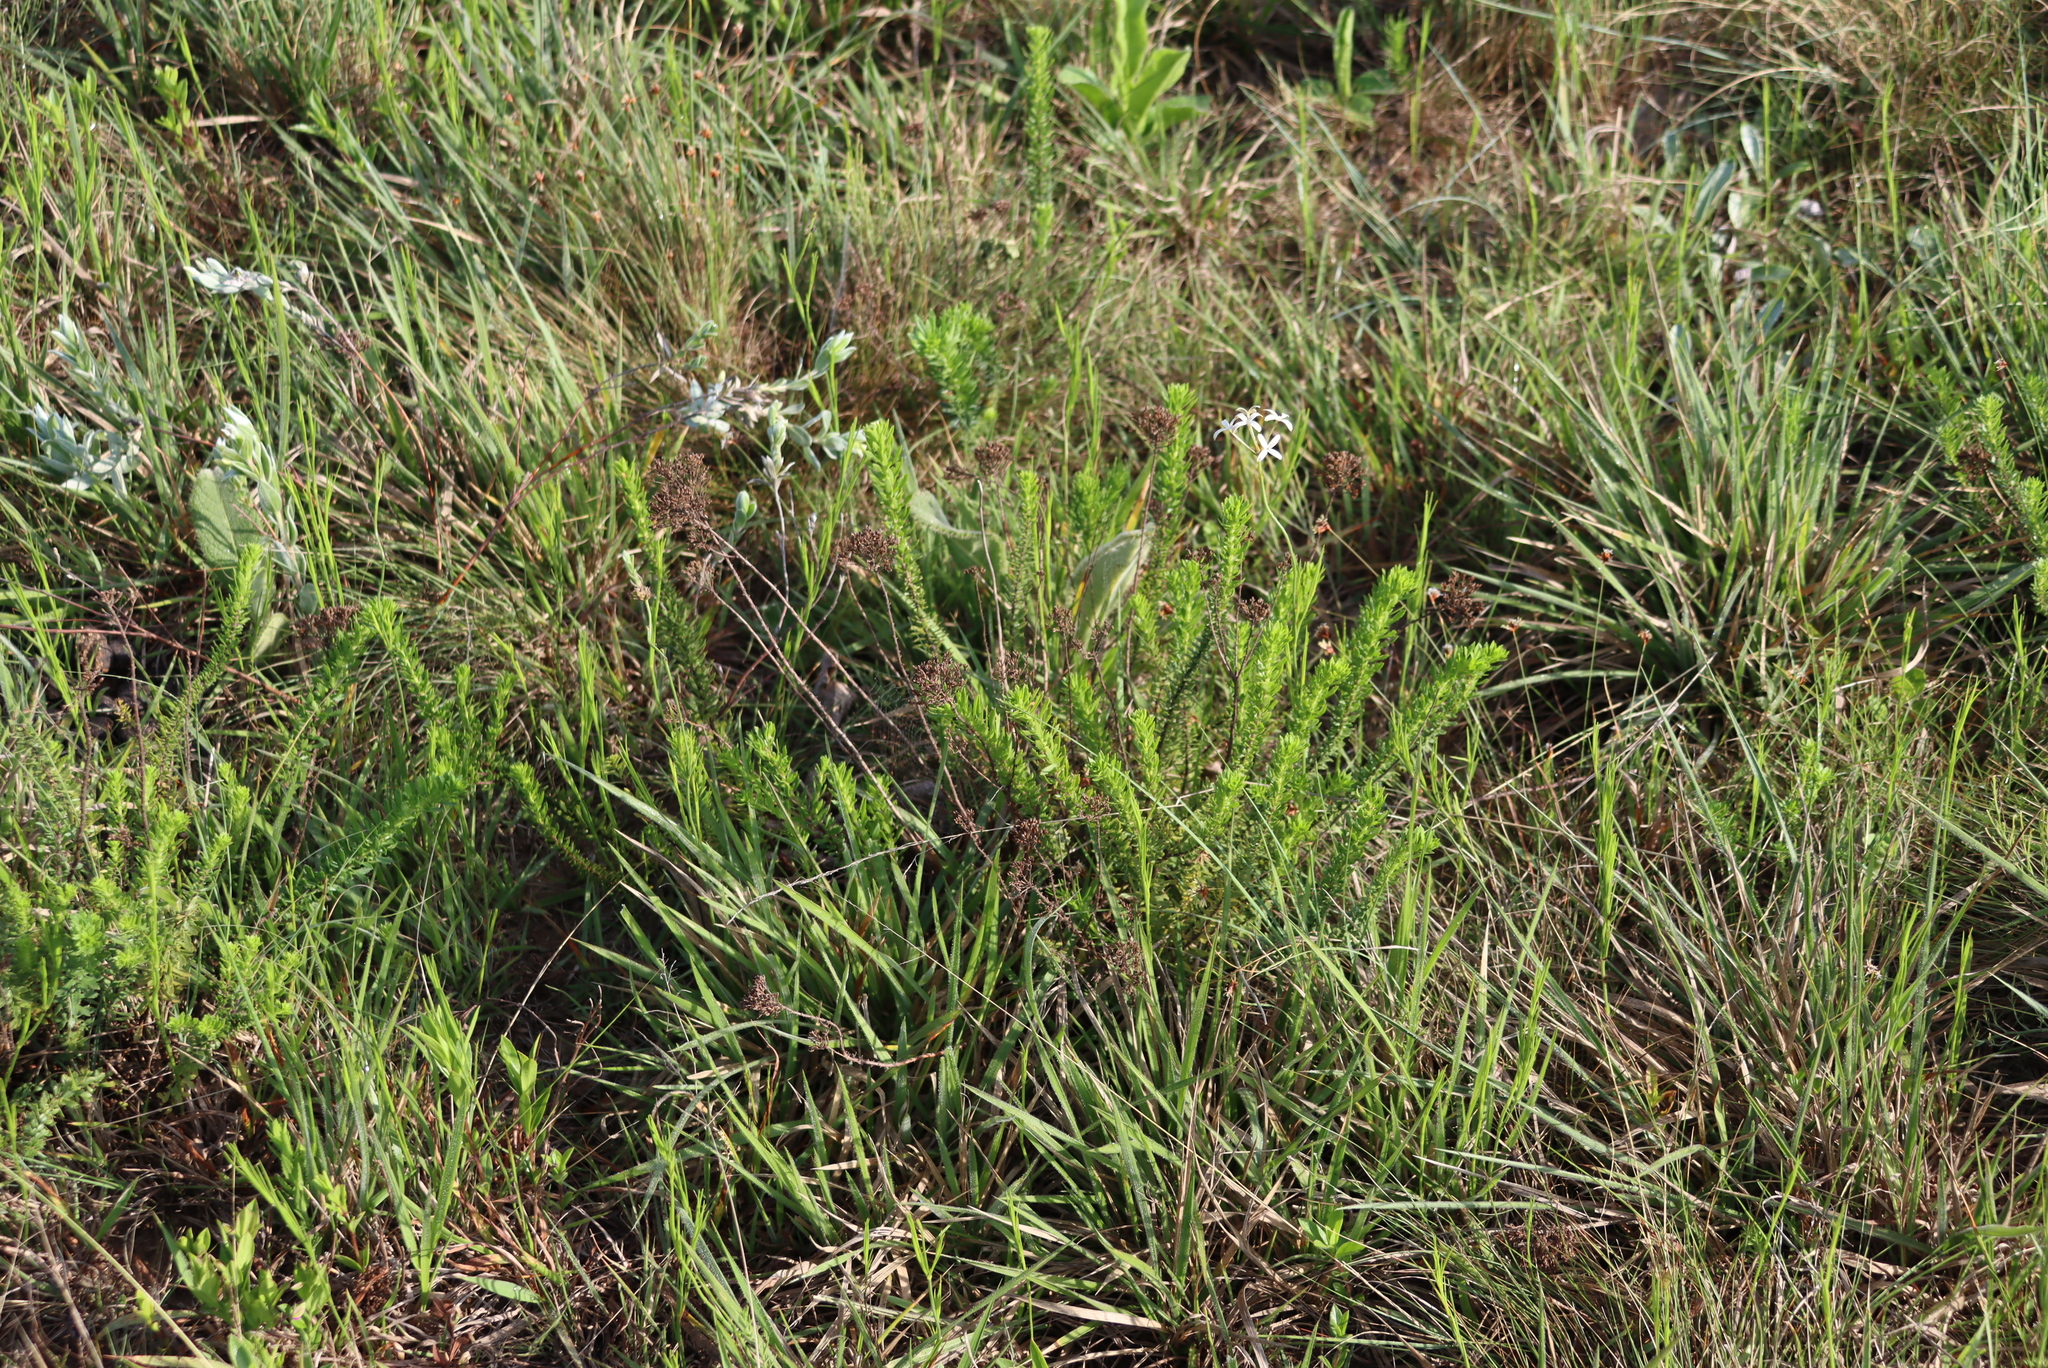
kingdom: Plantae
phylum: Tracheophyta
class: Magnoliopsida
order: Gentianales
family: Rubiaceae
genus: Kohautia
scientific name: Kohautia amatymbica
